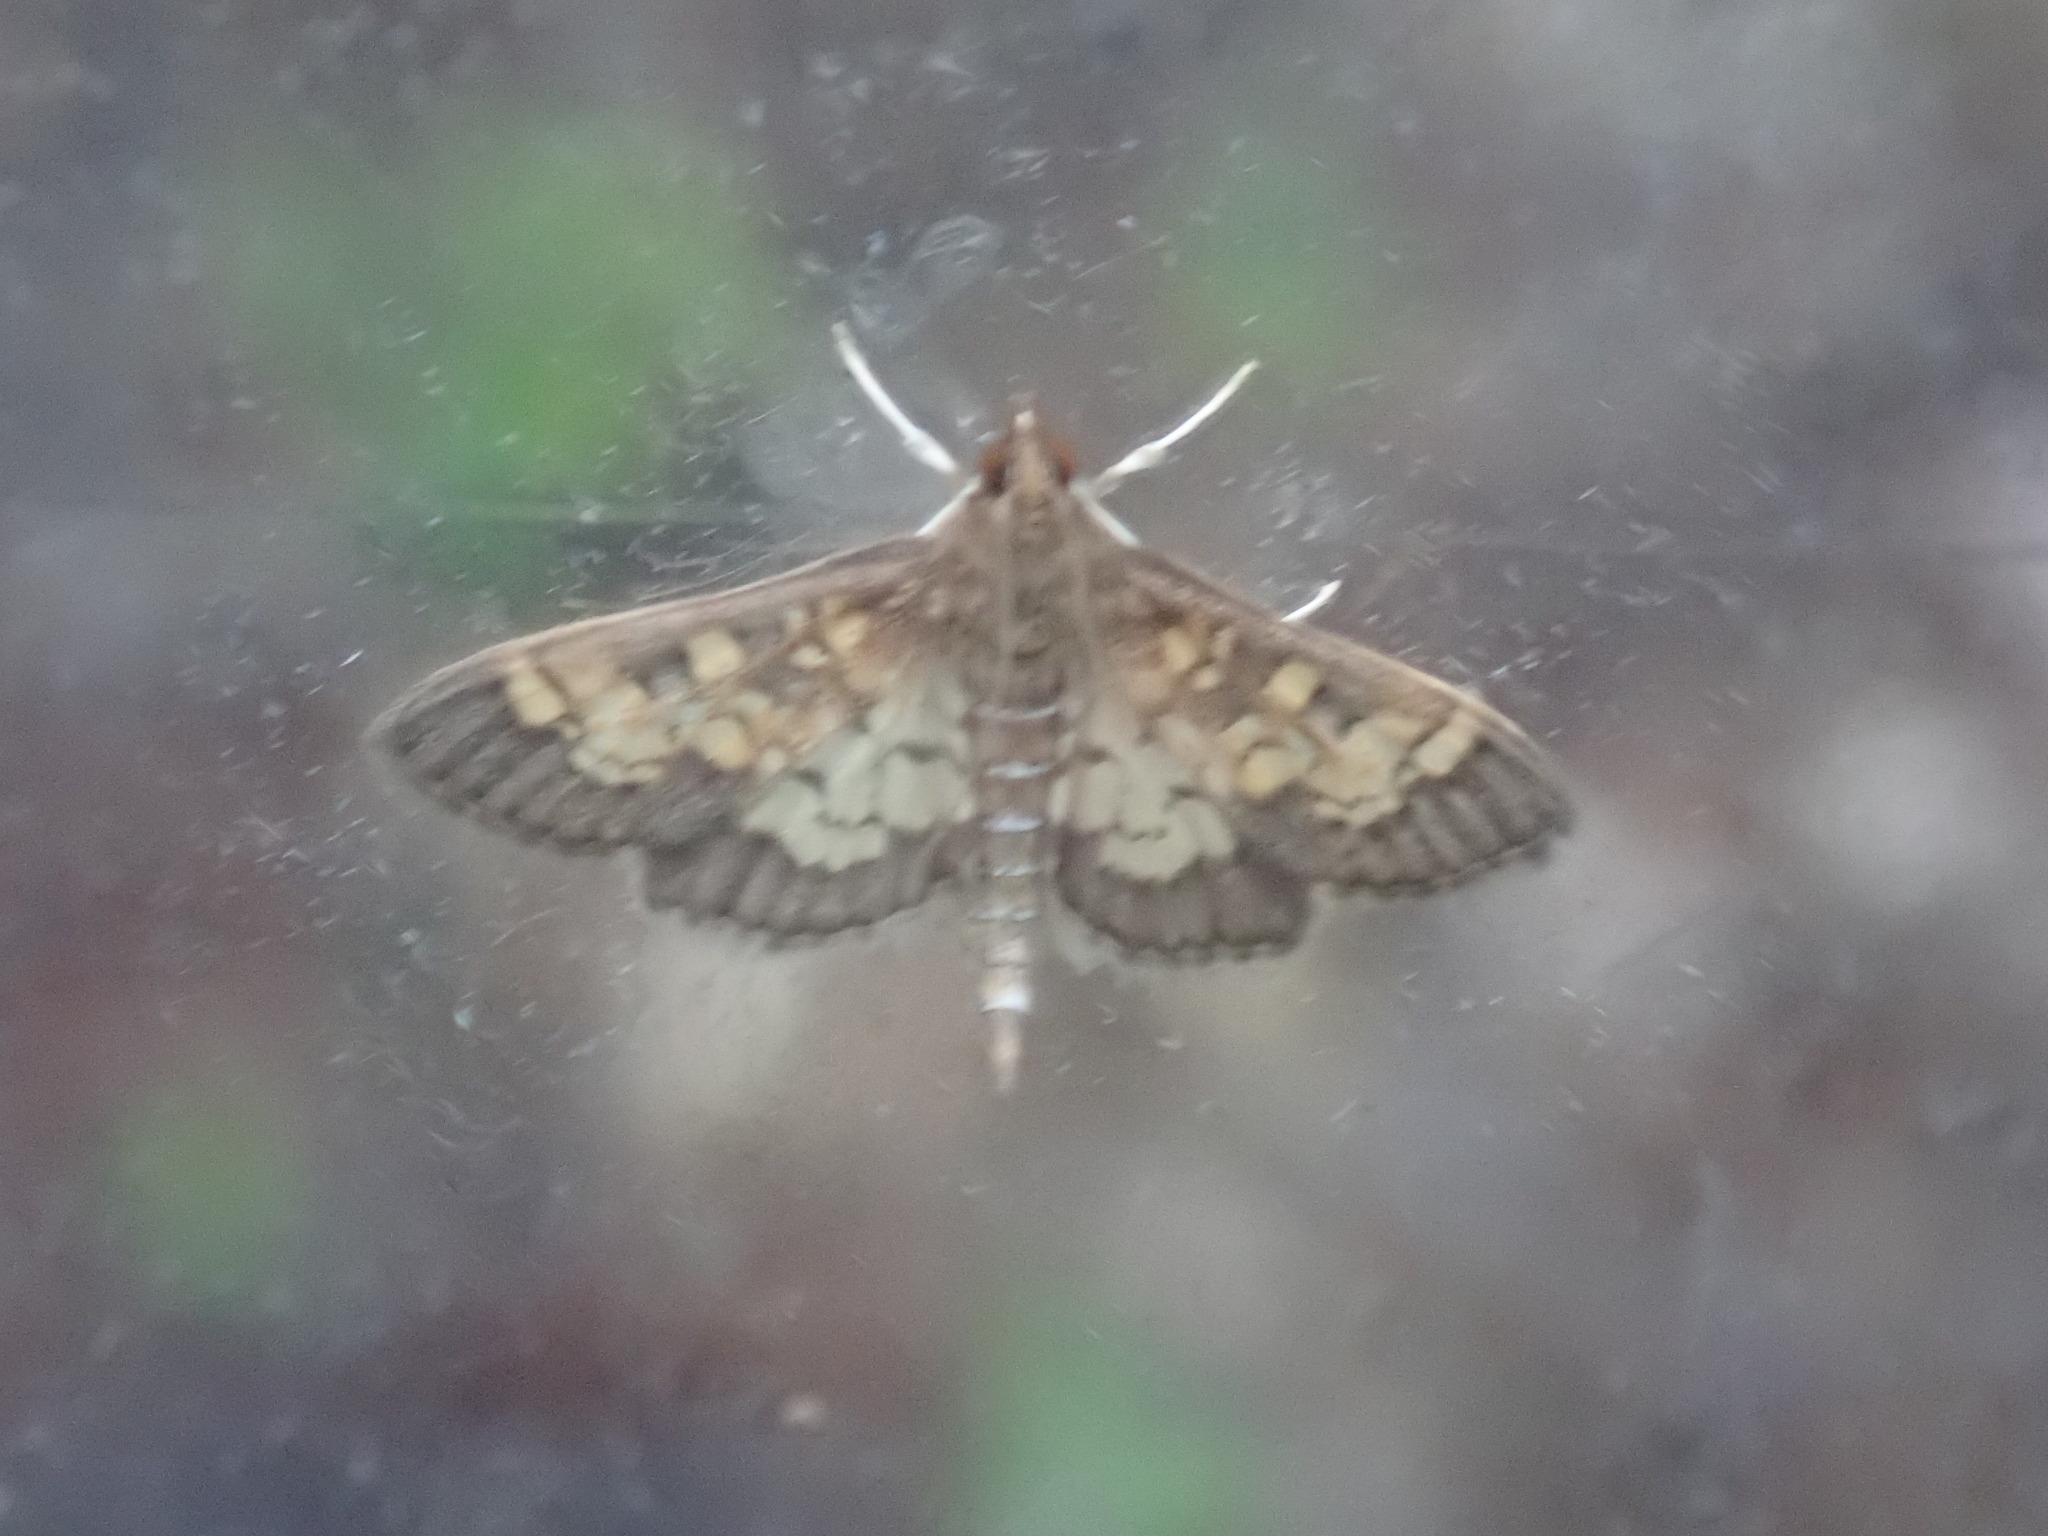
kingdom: Animalia
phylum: Arthropoda
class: Insecta
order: Lepidoptera
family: Crambidae
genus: Epipagis
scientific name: Epipagis adipaloides
